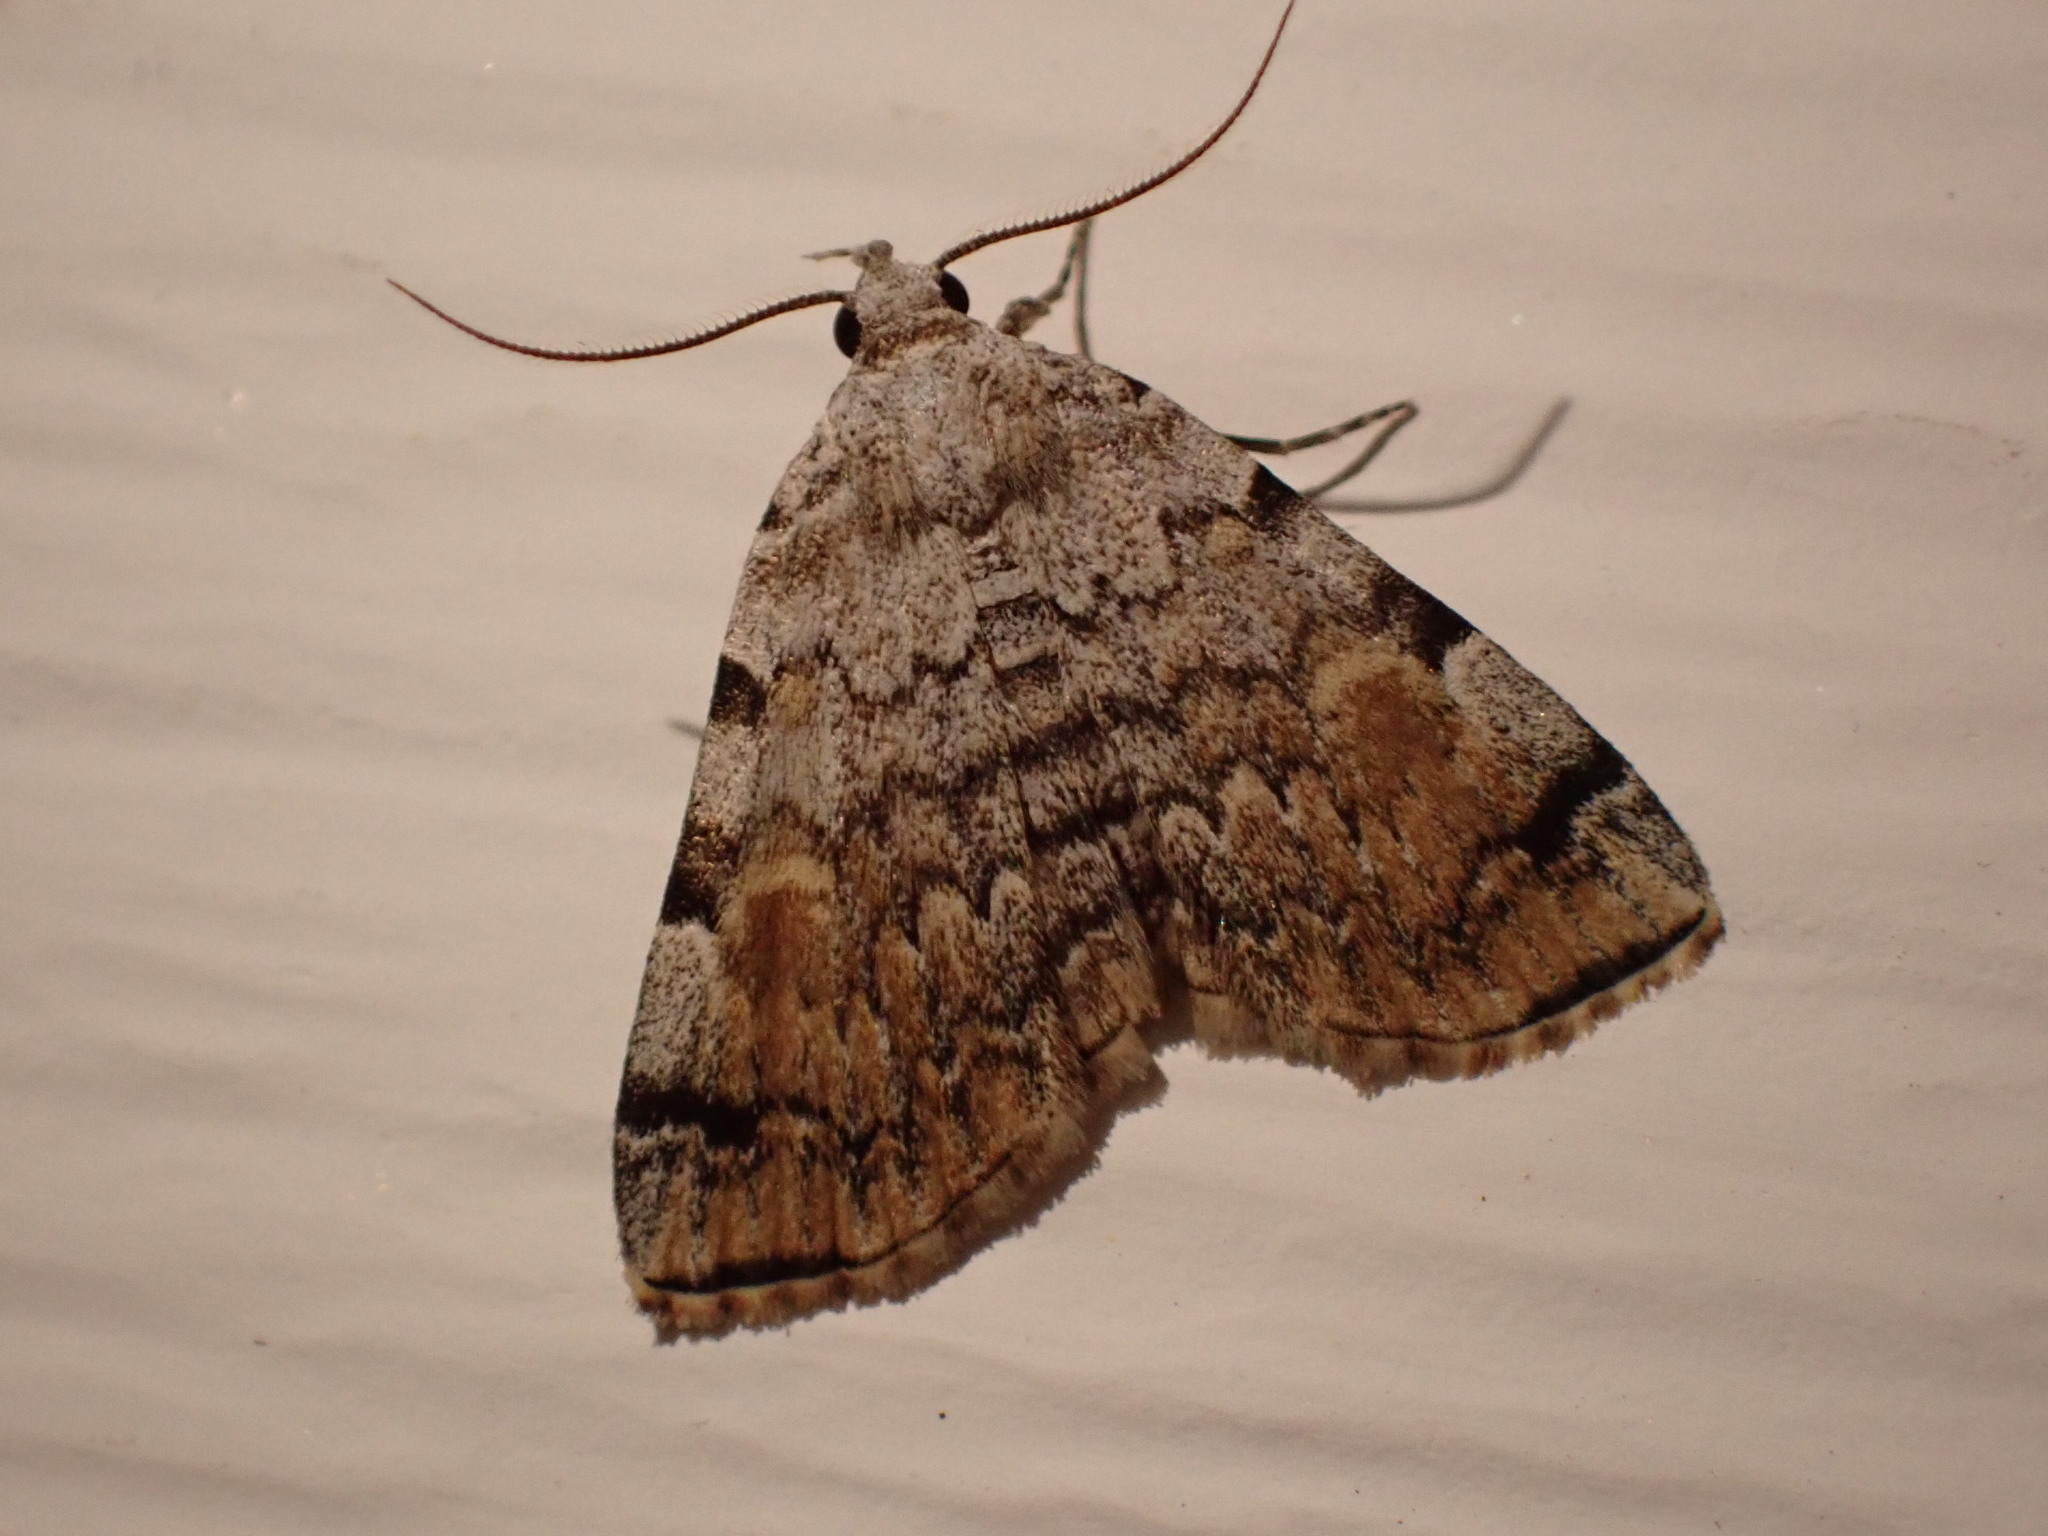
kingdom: Animalia
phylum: Arthropoda
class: Insecta
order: Lepidoptera
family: Erebidae
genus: Idia
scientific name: Idia americalis
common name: American idia moth
